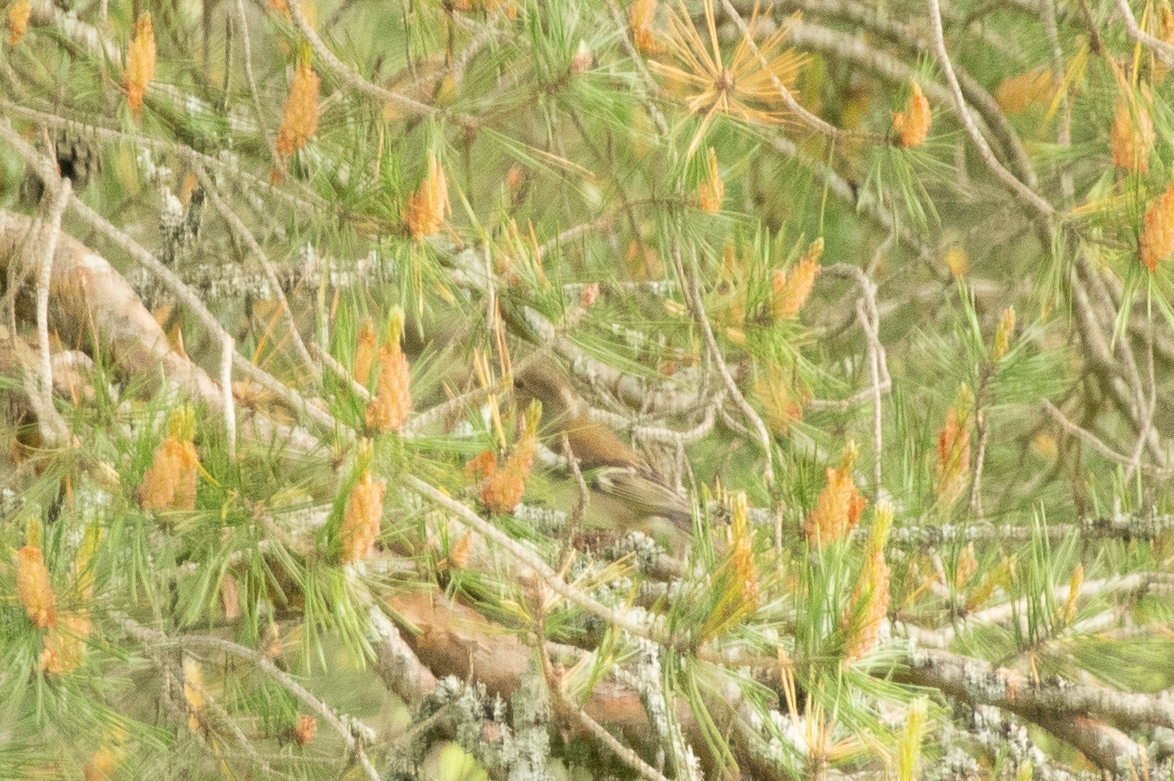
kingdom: Animalia
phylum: Chordata
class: Aves
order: Passeriformes
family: Fringillidae
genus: Fringilla
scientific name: Fringilla coelebs
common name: Common chaffinch
